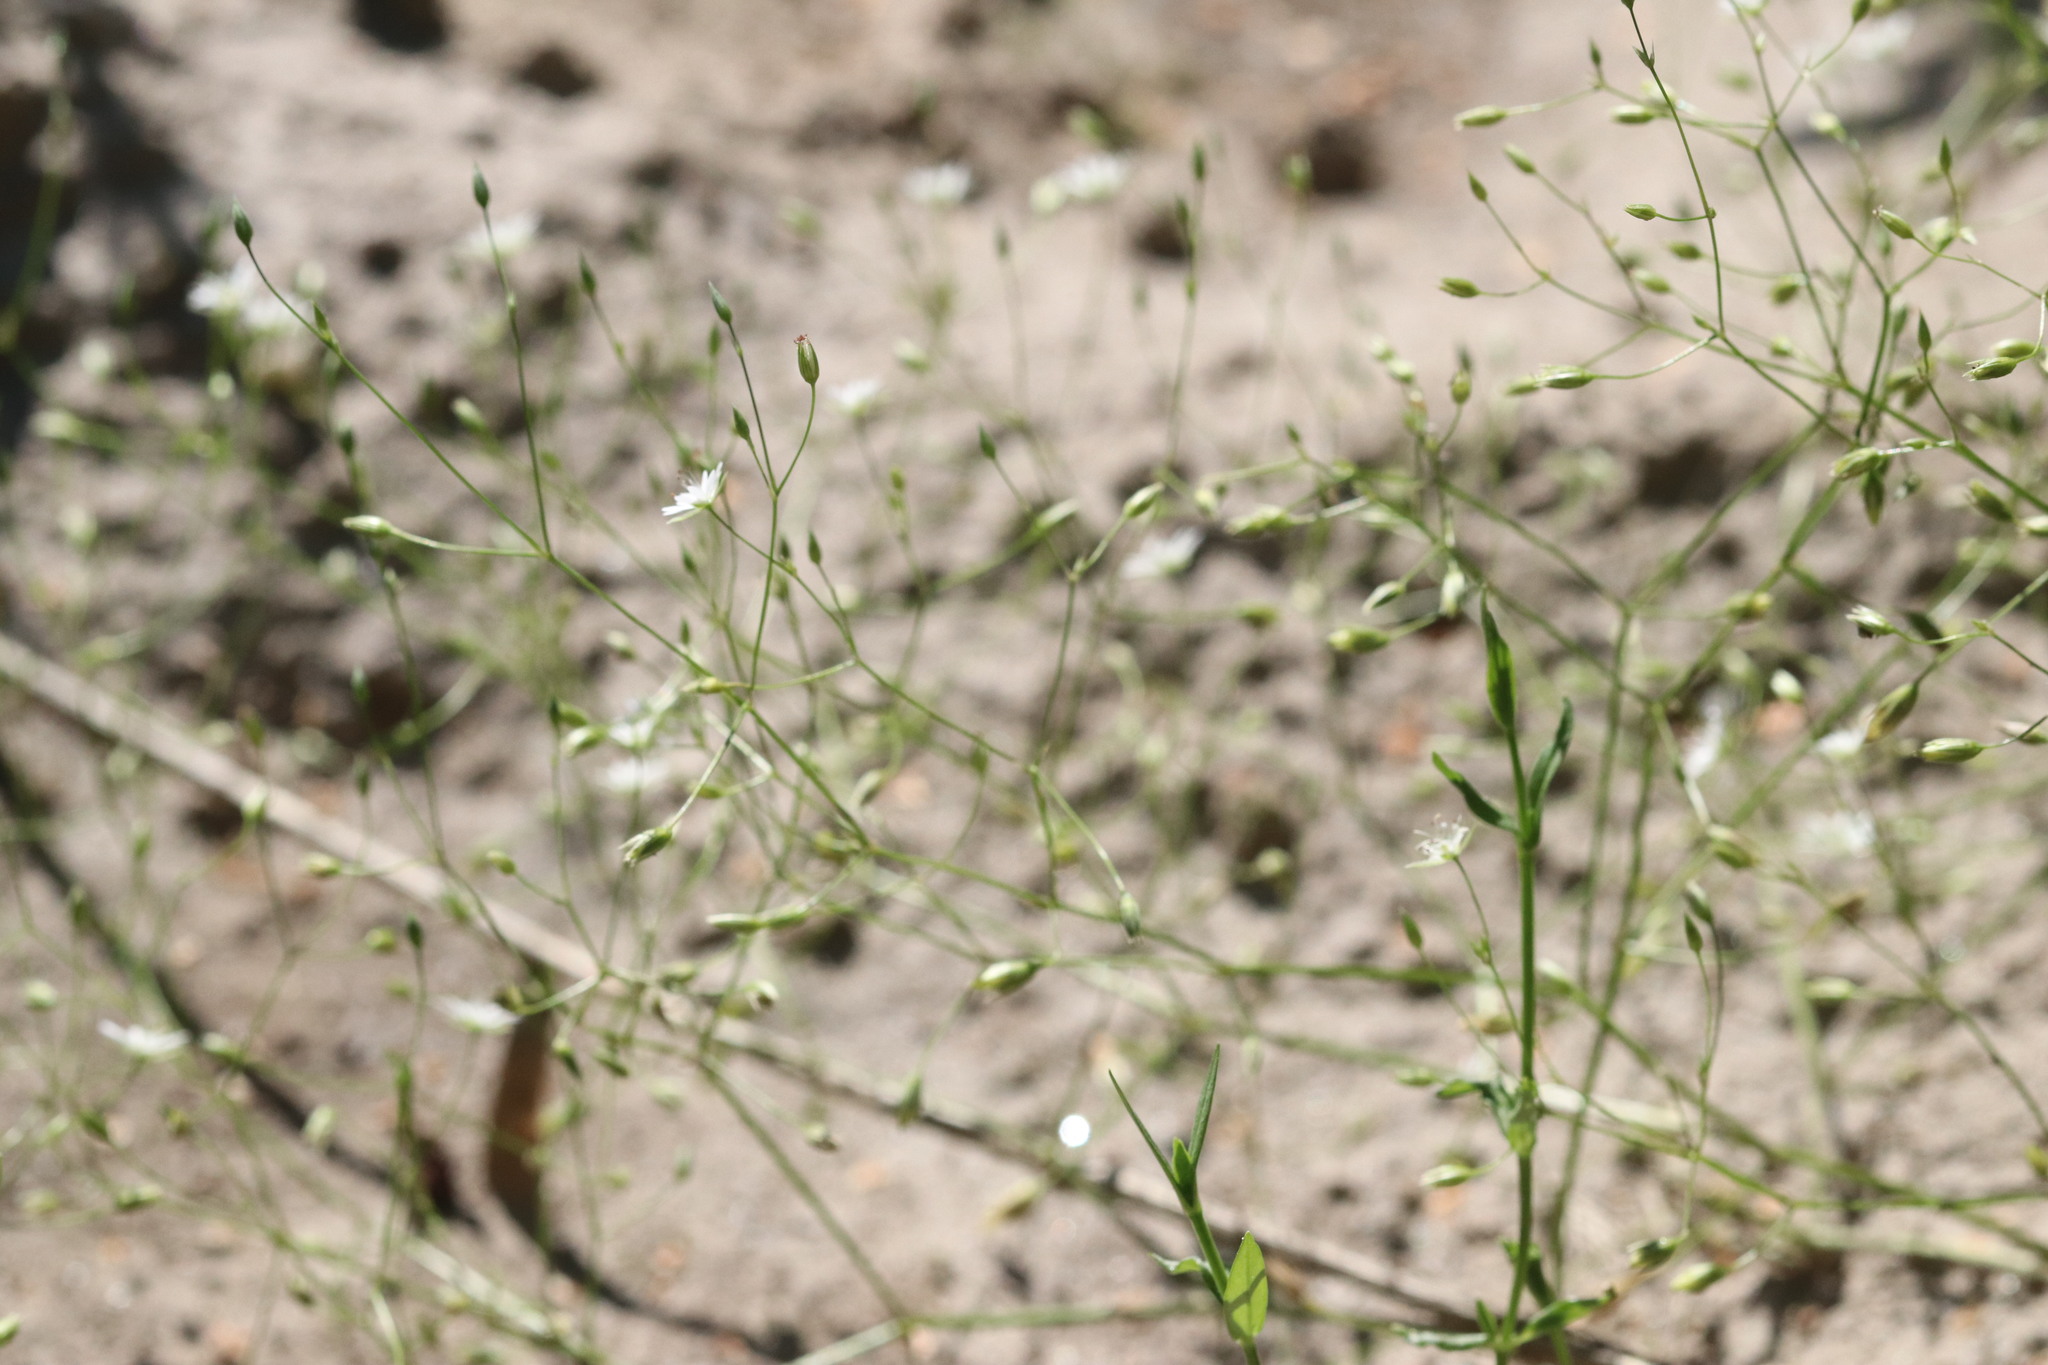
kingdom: Plantae
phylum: Tracheophyta
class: Magnoliopsida
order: Caryophyllales
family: Caryophyllaceae
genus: Stellaria
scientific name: Stellaria graminea
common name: Grass-like starwort
